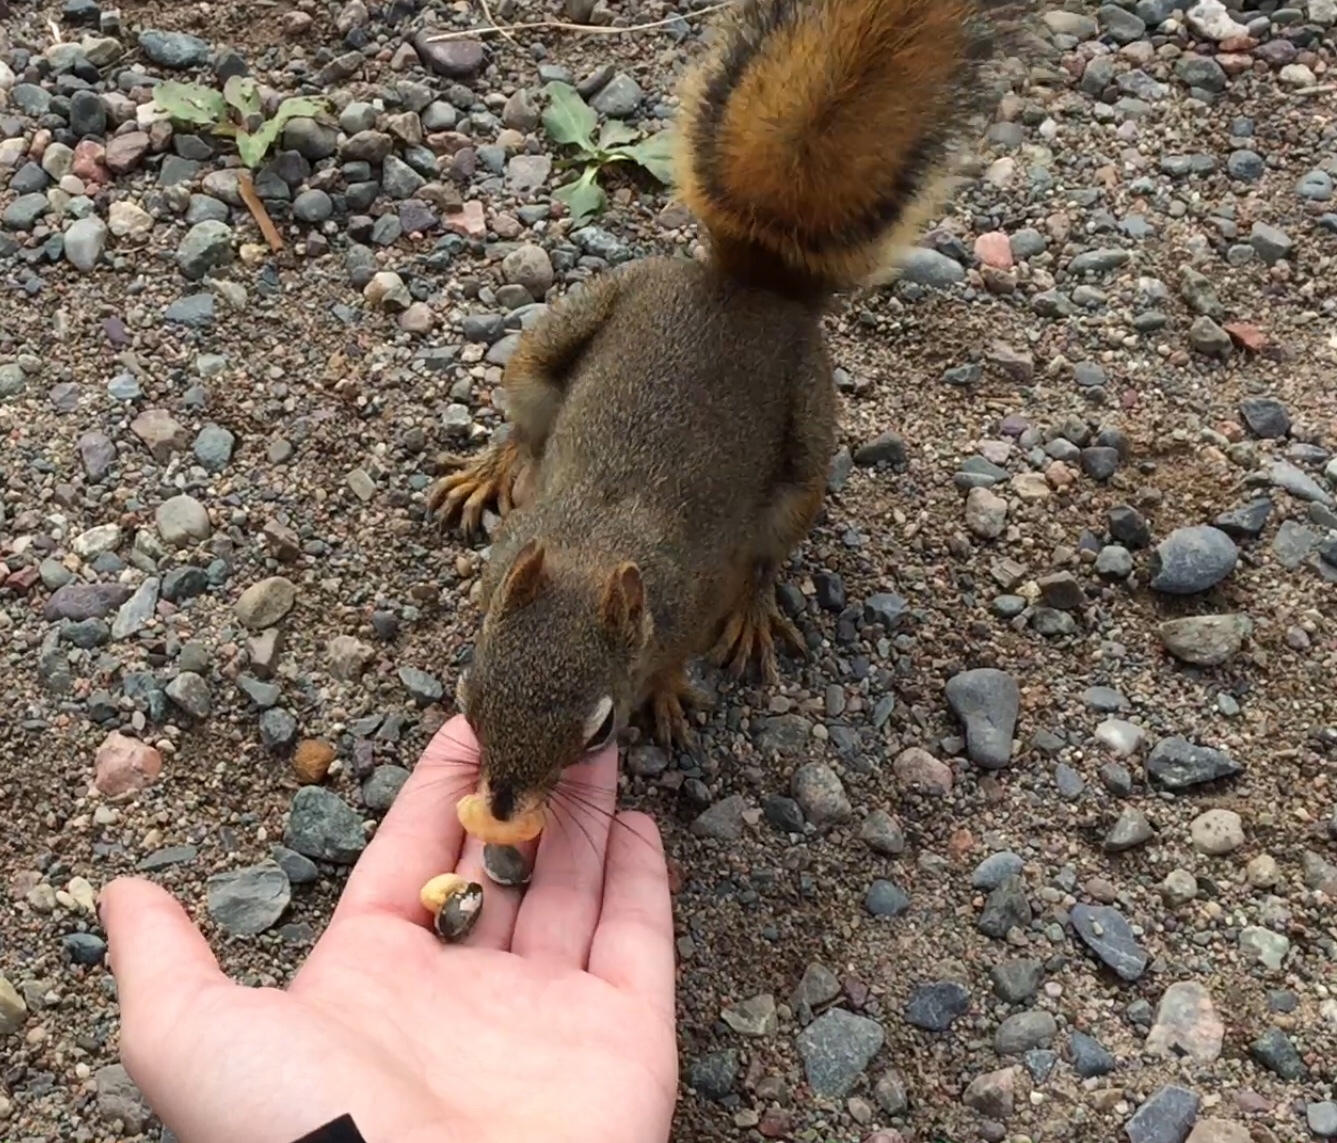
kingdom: Animalia
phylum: Chordata
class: Mammalia
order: Rodentia
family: Sciuridae
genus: Tamiasciurus
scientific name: Tamiasciurus hudsonicus
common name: Red squirrel
